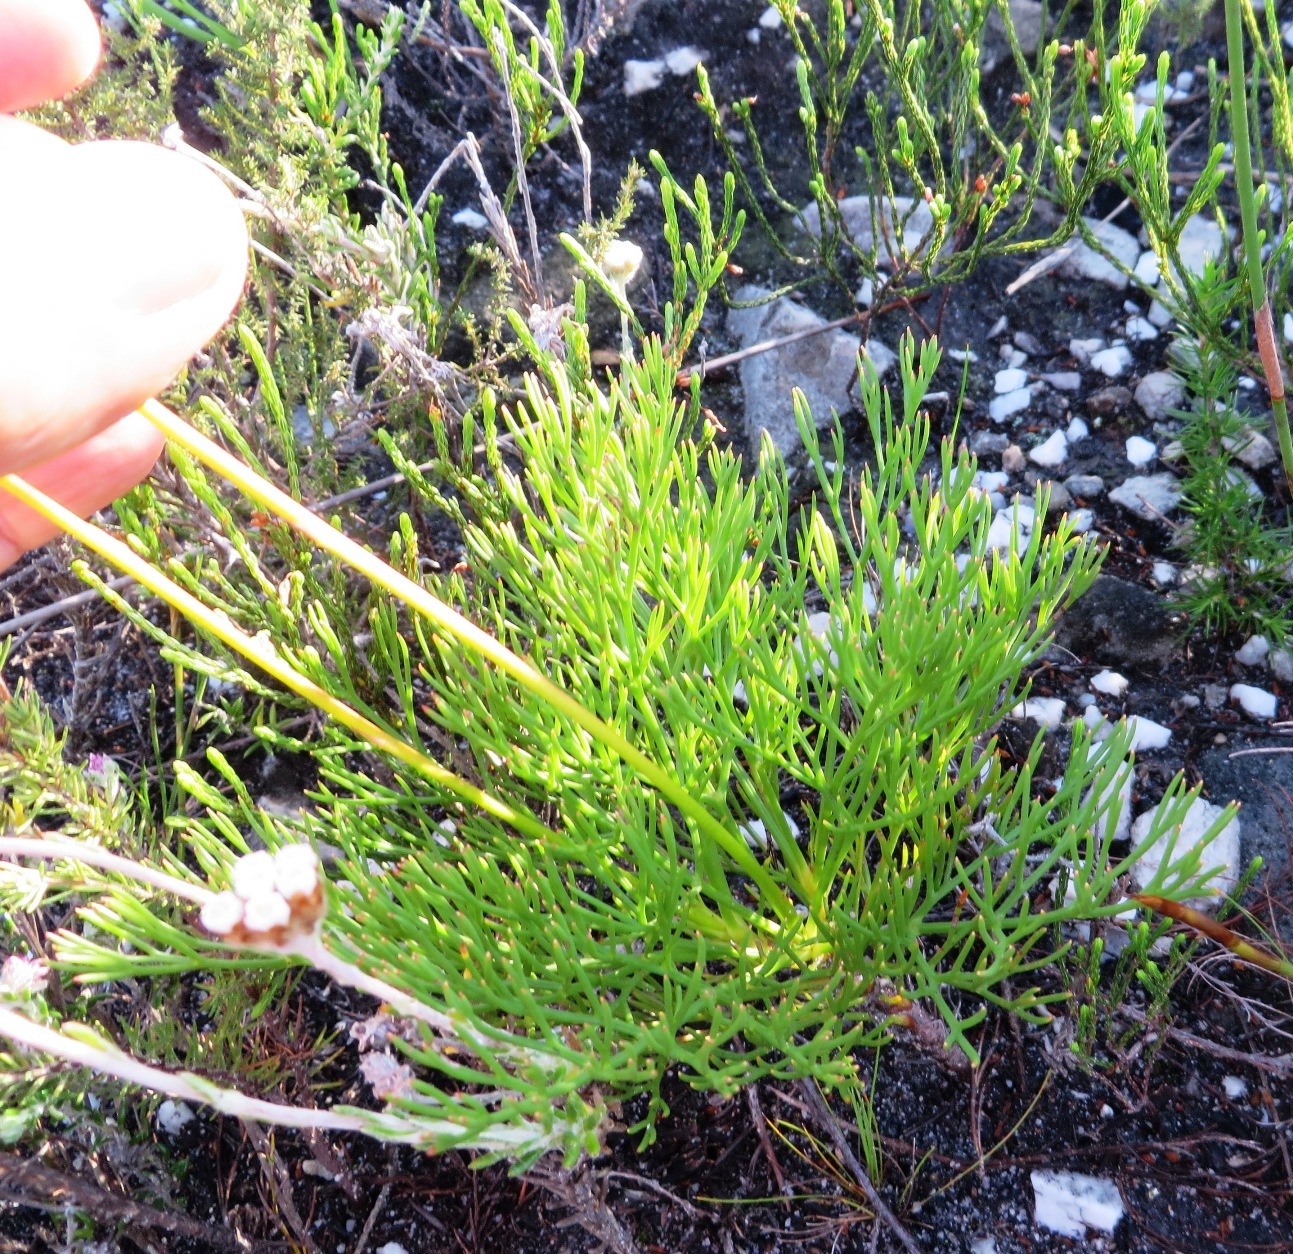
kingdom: Plantae
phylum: Tracheophyta
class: Magnoliopsida
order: Proteales
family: Proteaceae
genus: Serruria
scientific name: Serruria elongata
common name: Long-stalk spiderhead
